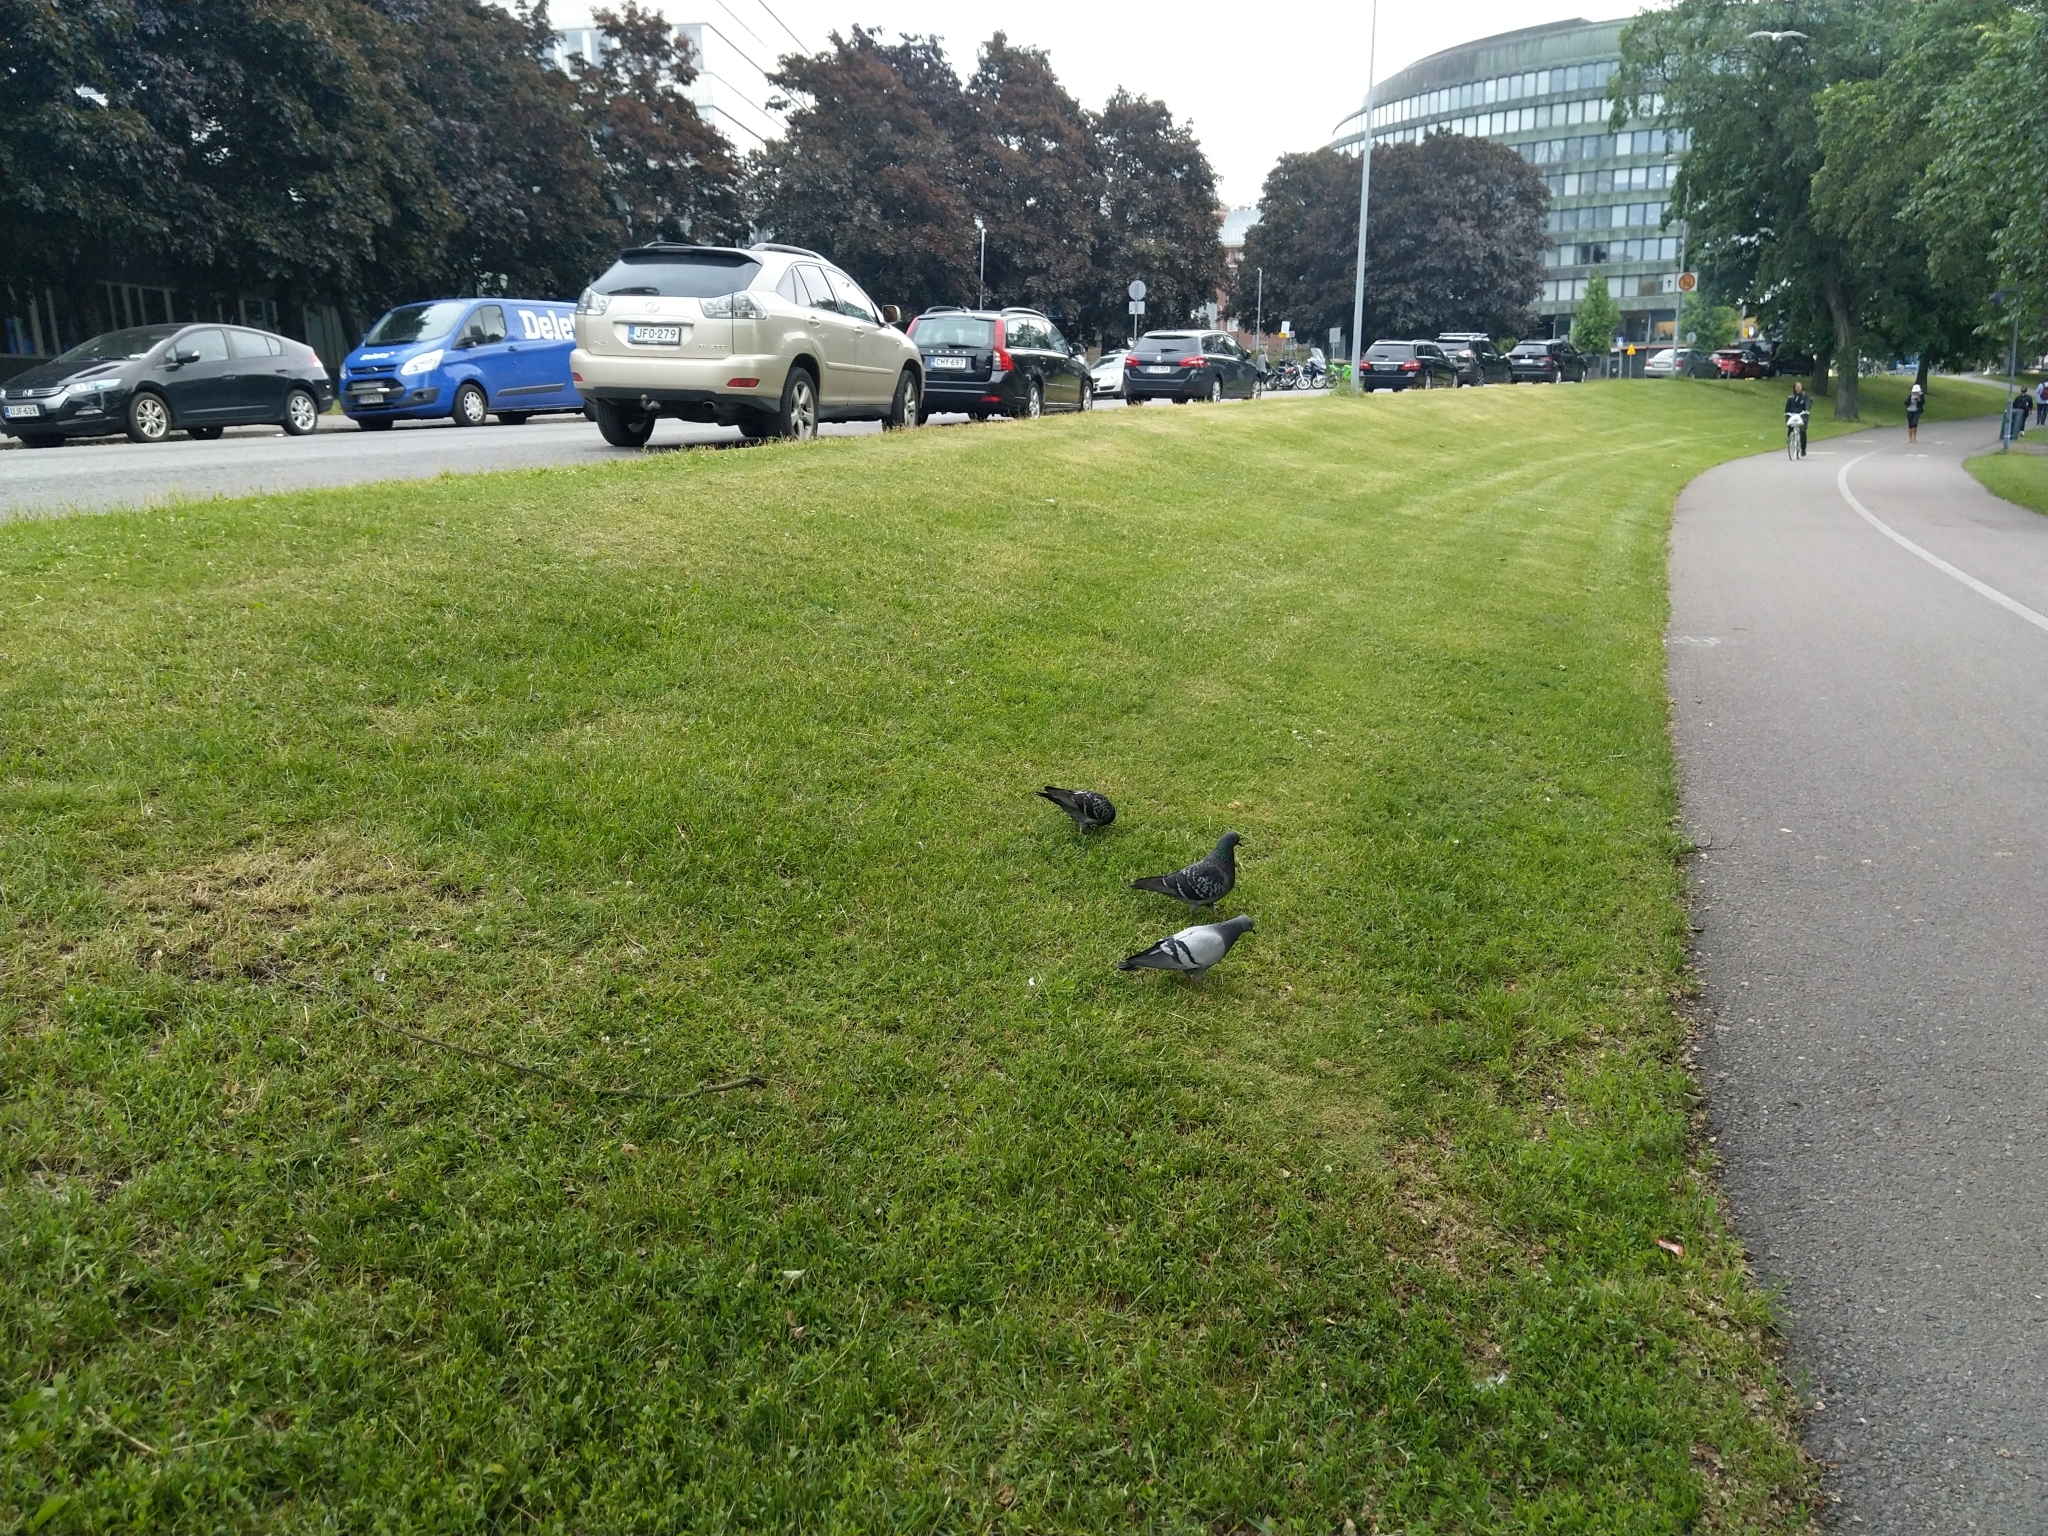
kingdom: Animalia
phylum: Chordata
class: Aves
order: Columbiformes
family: Columbidae
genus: Columba
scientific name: Columba livia
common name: Rock pigeon
